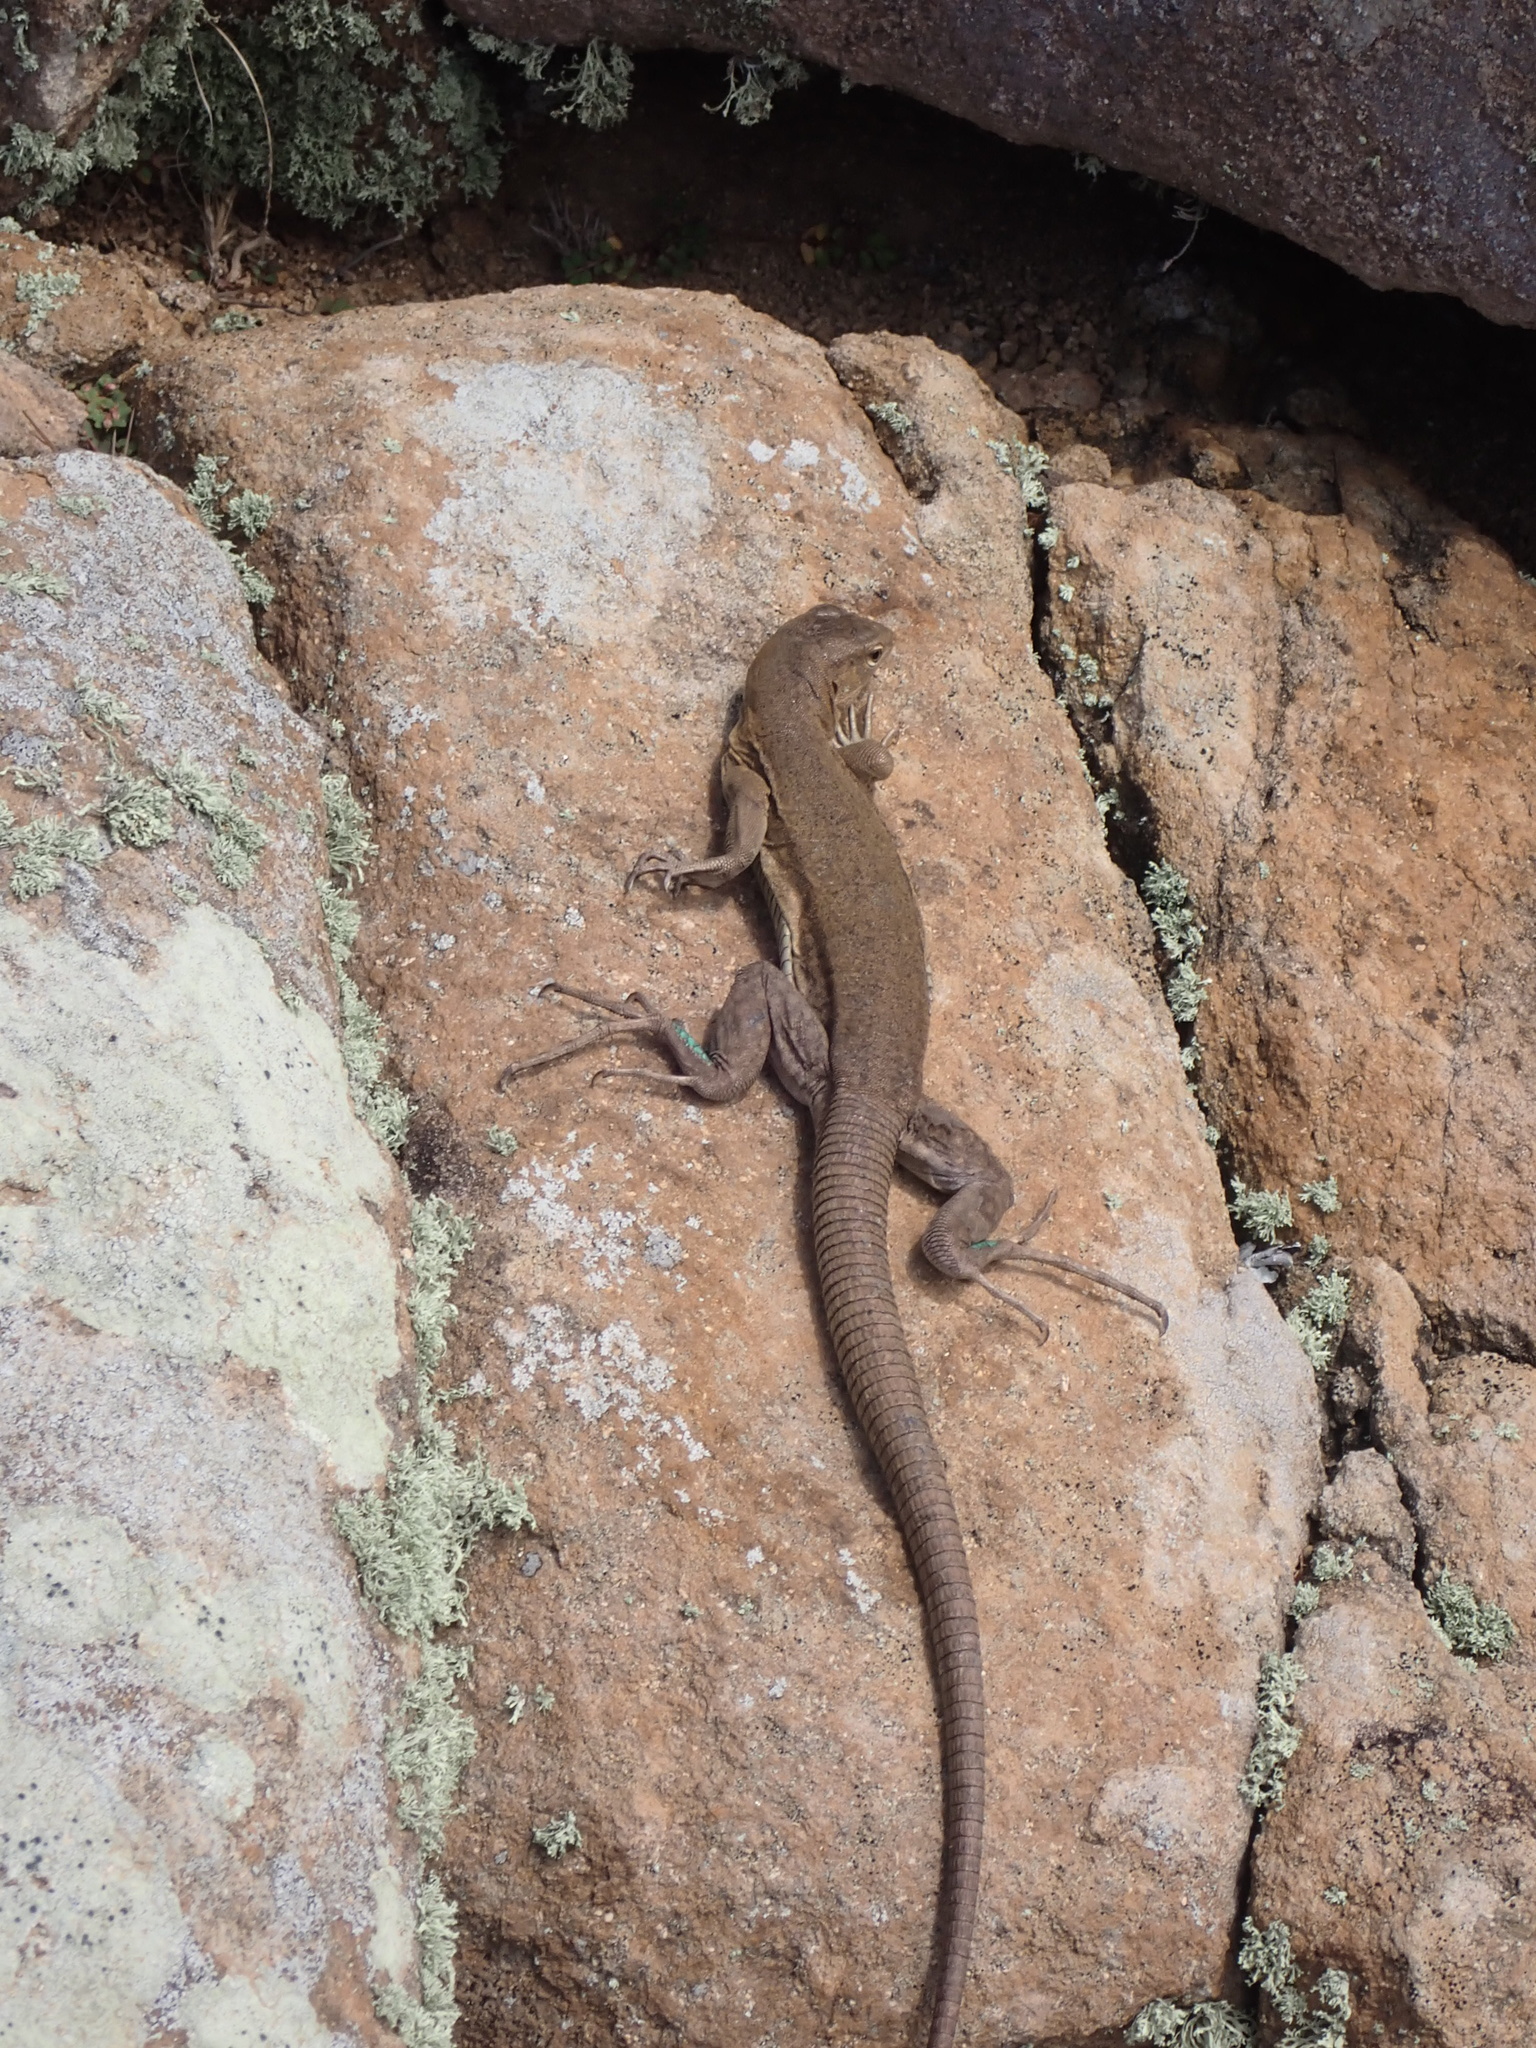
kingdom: Animalia
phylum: Chordata
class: Squamata
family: Teiidae
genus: Cnemidophorus
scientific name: Cnemidophorus ruthveni
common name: Bonaire whiptail
